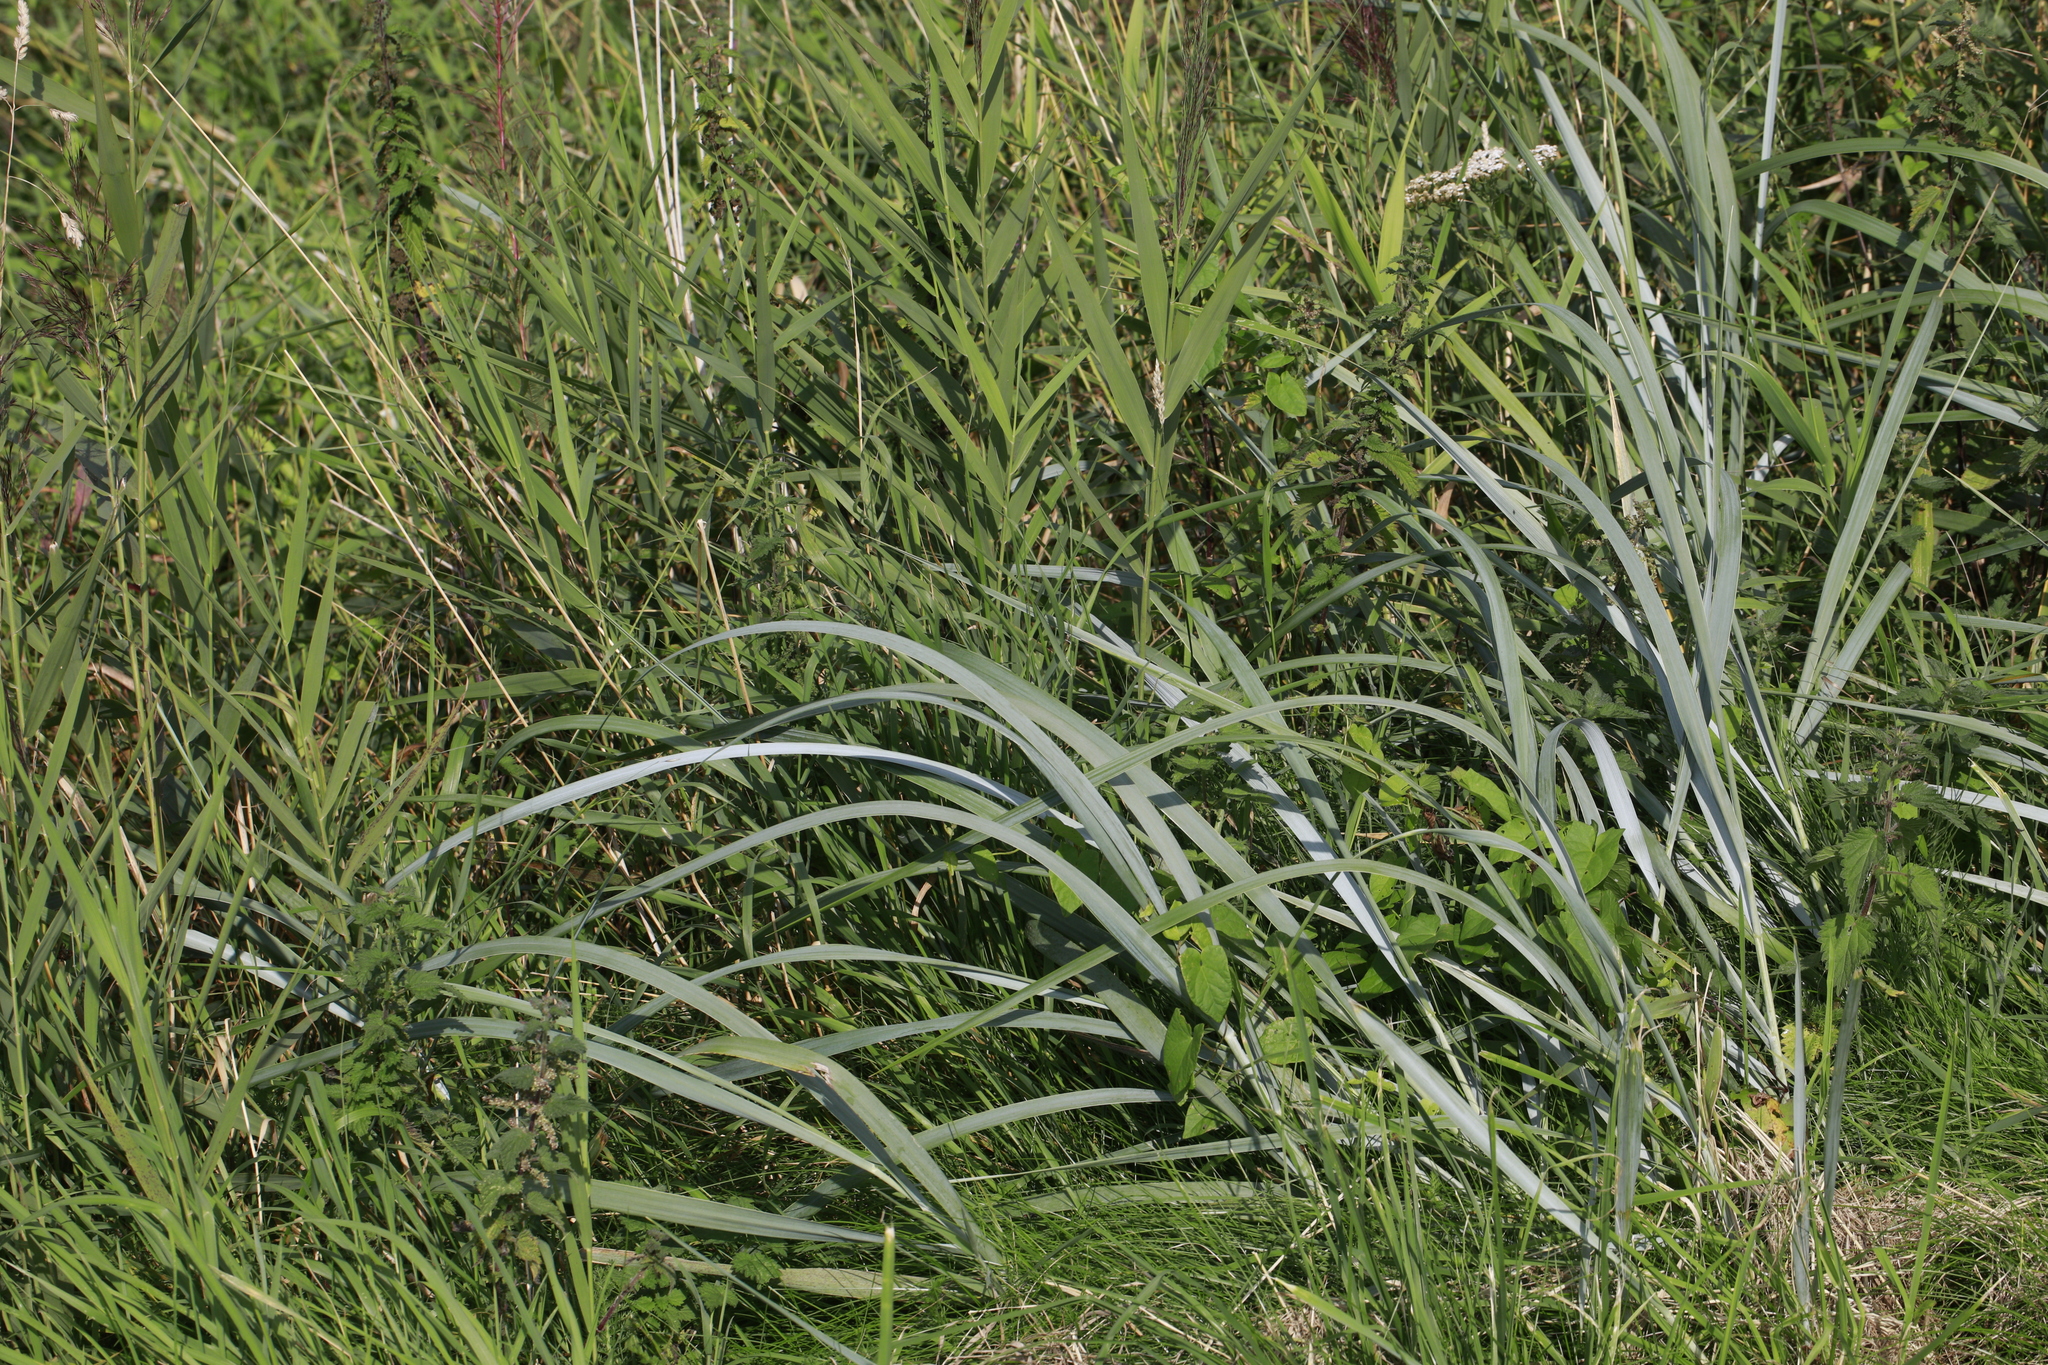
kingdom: Plantae
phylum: Tracheophyta
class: Liliopsida
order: Poales
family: Poaceae
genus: Leymus
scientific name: Leymus arenarius
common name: Lyme-grass
